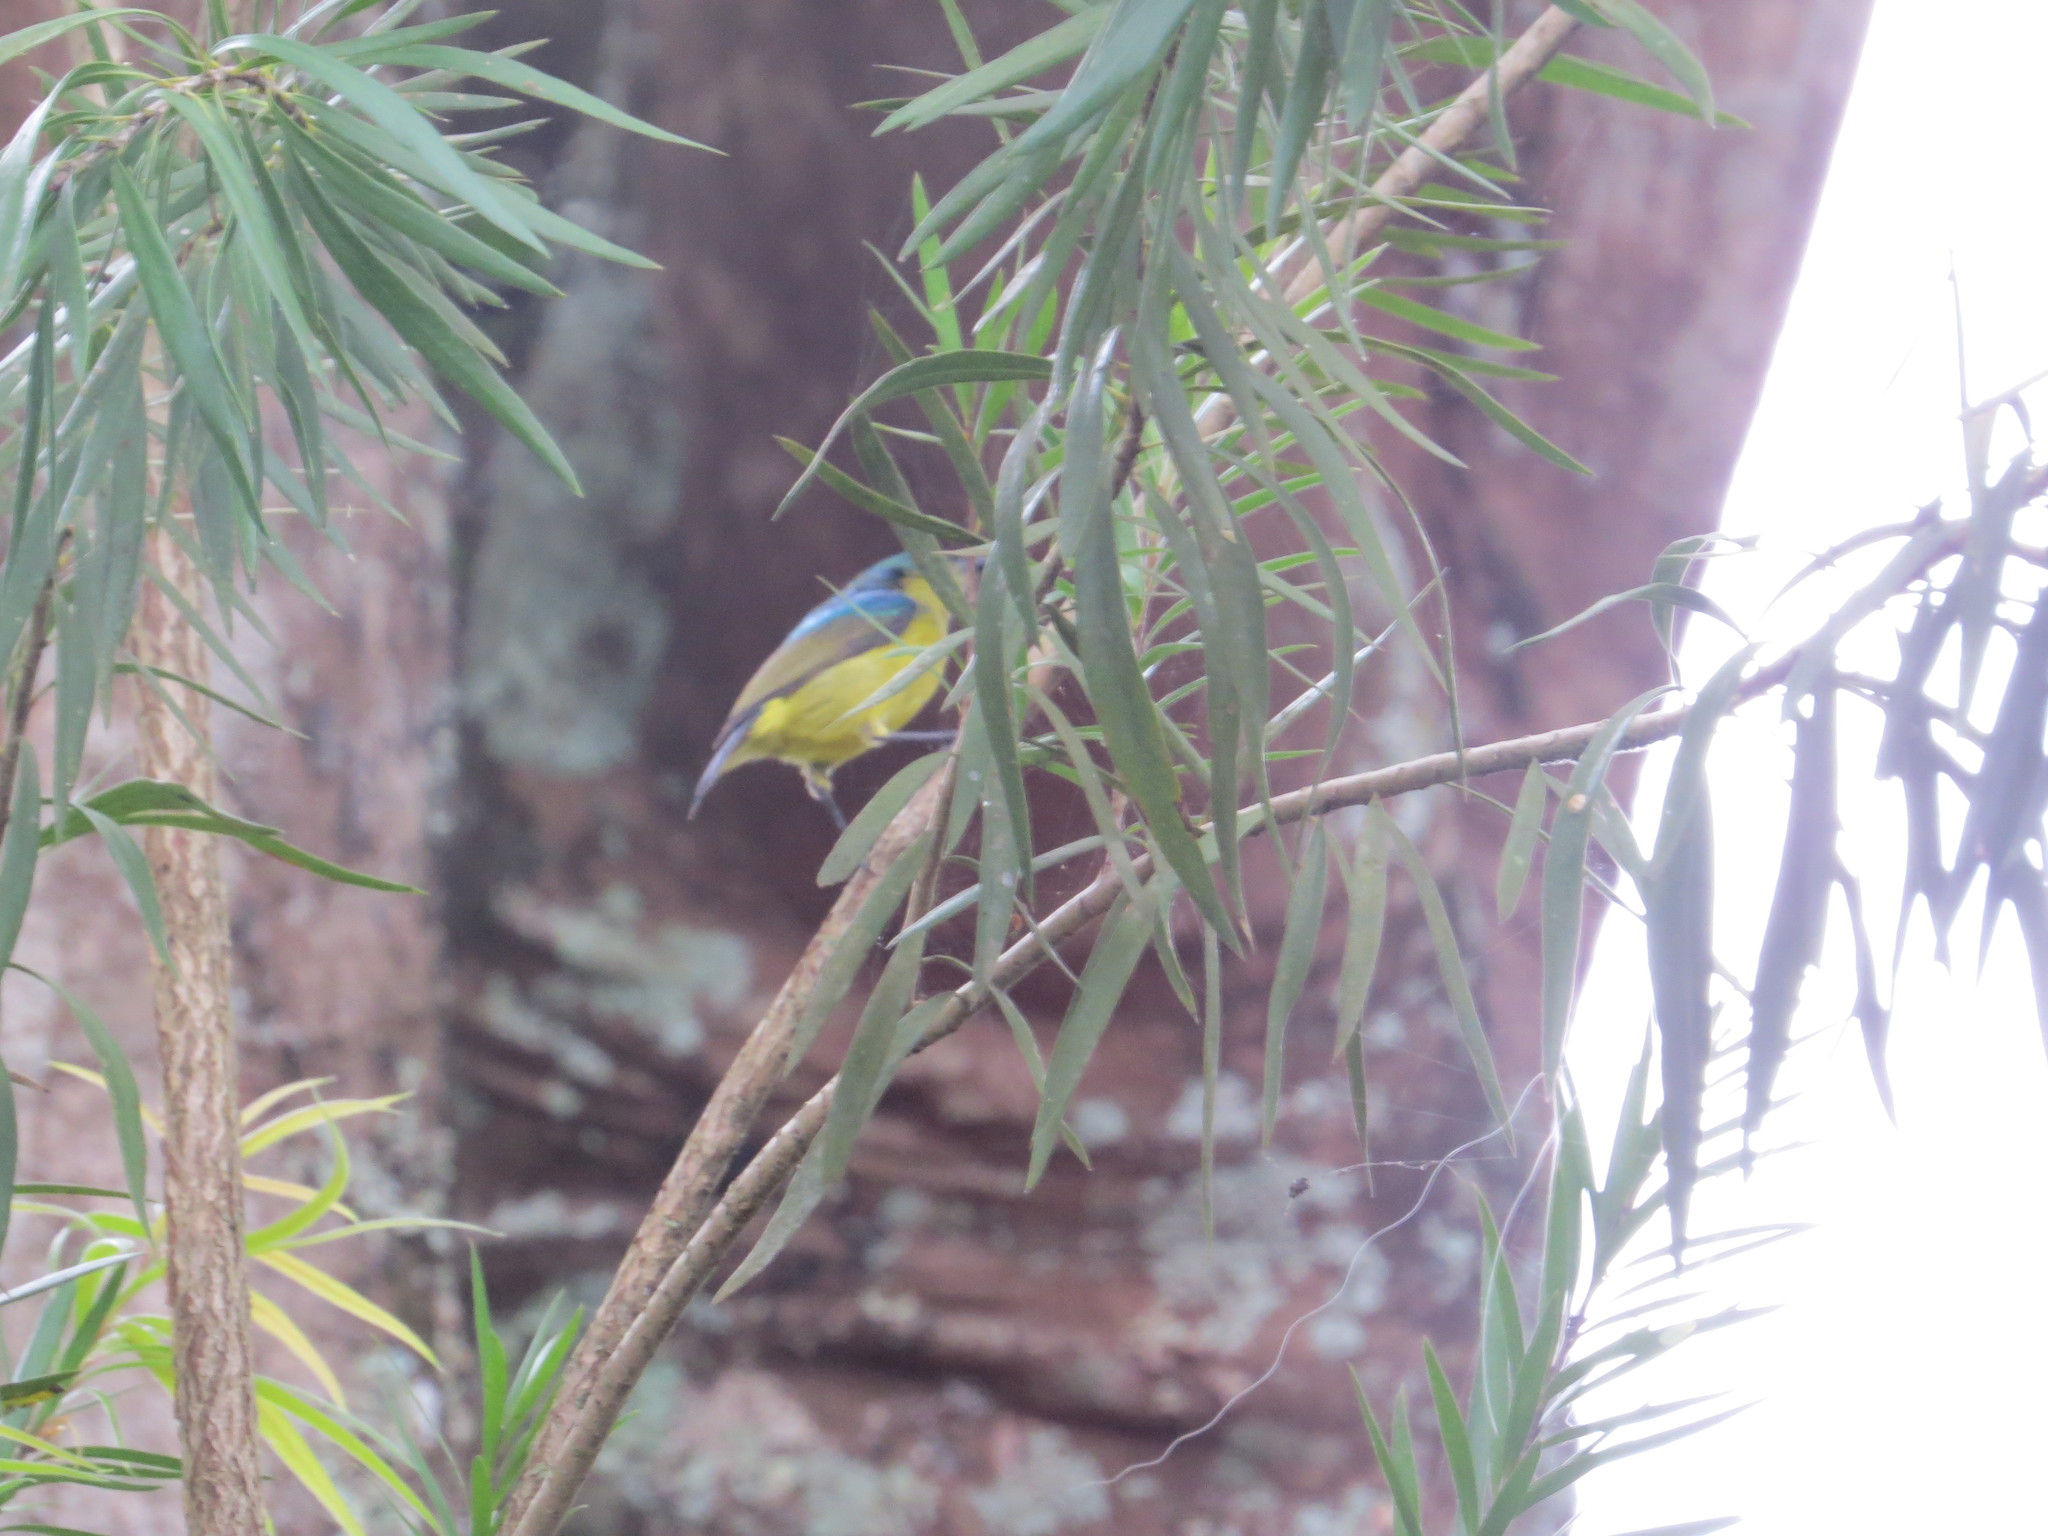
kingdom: Animalia
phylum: Chordata
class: Aves
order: Passeriformes
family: Nectariniidae
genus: Hedydipna
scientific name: Hedydipna collaris
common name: Collared sunbird
